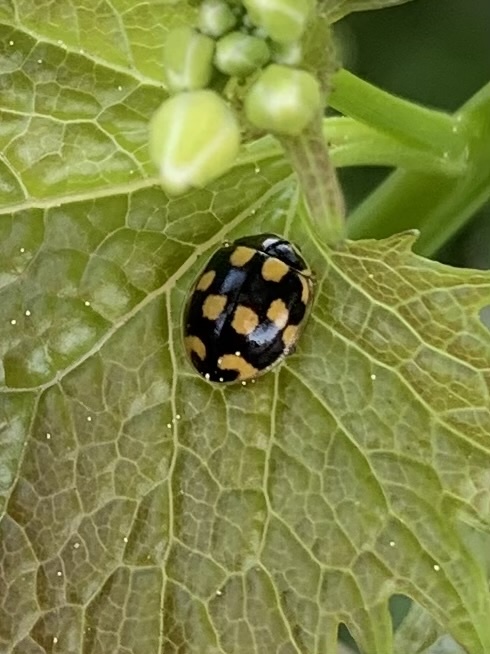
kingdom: Animalia
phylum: Arthropoda
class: Insecta
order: Coleoptera
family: Coccinellidae
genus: Propylaea
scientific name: Propylaea quatuordecimpunctata
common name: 14-spotted ladybird beetle
